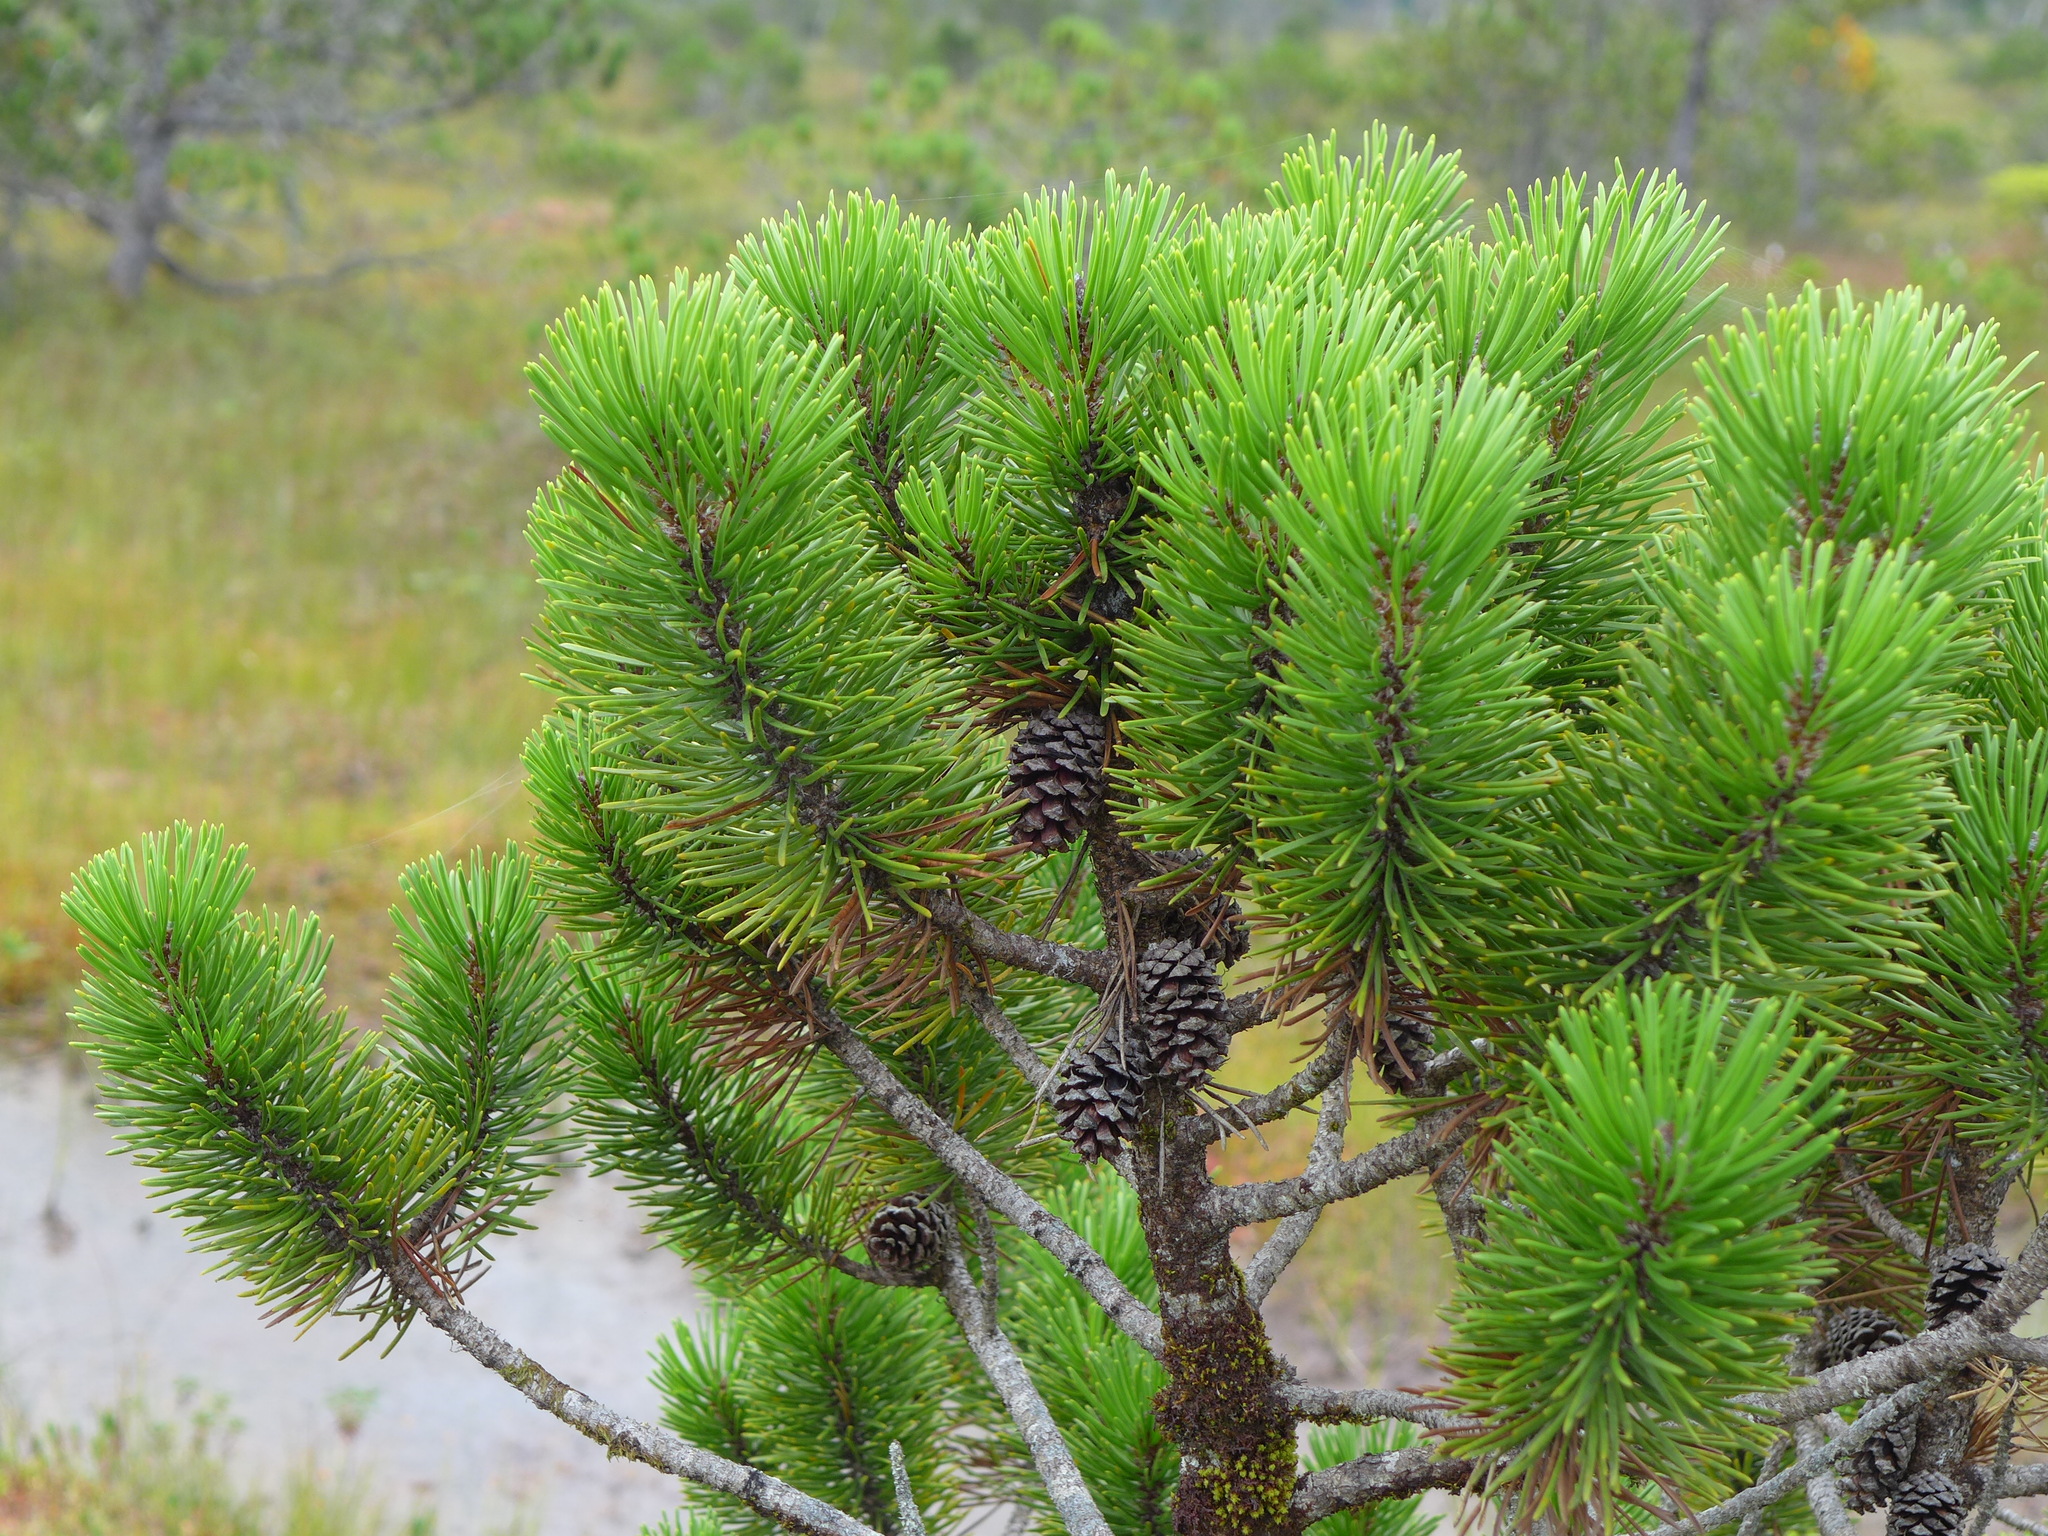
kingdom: Plantae
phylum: Tracheophyta
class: Pinopsida
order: Pinales
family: Pinaceae
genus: Pinus
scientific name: Pinus contorta
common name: Lodgepole pine
